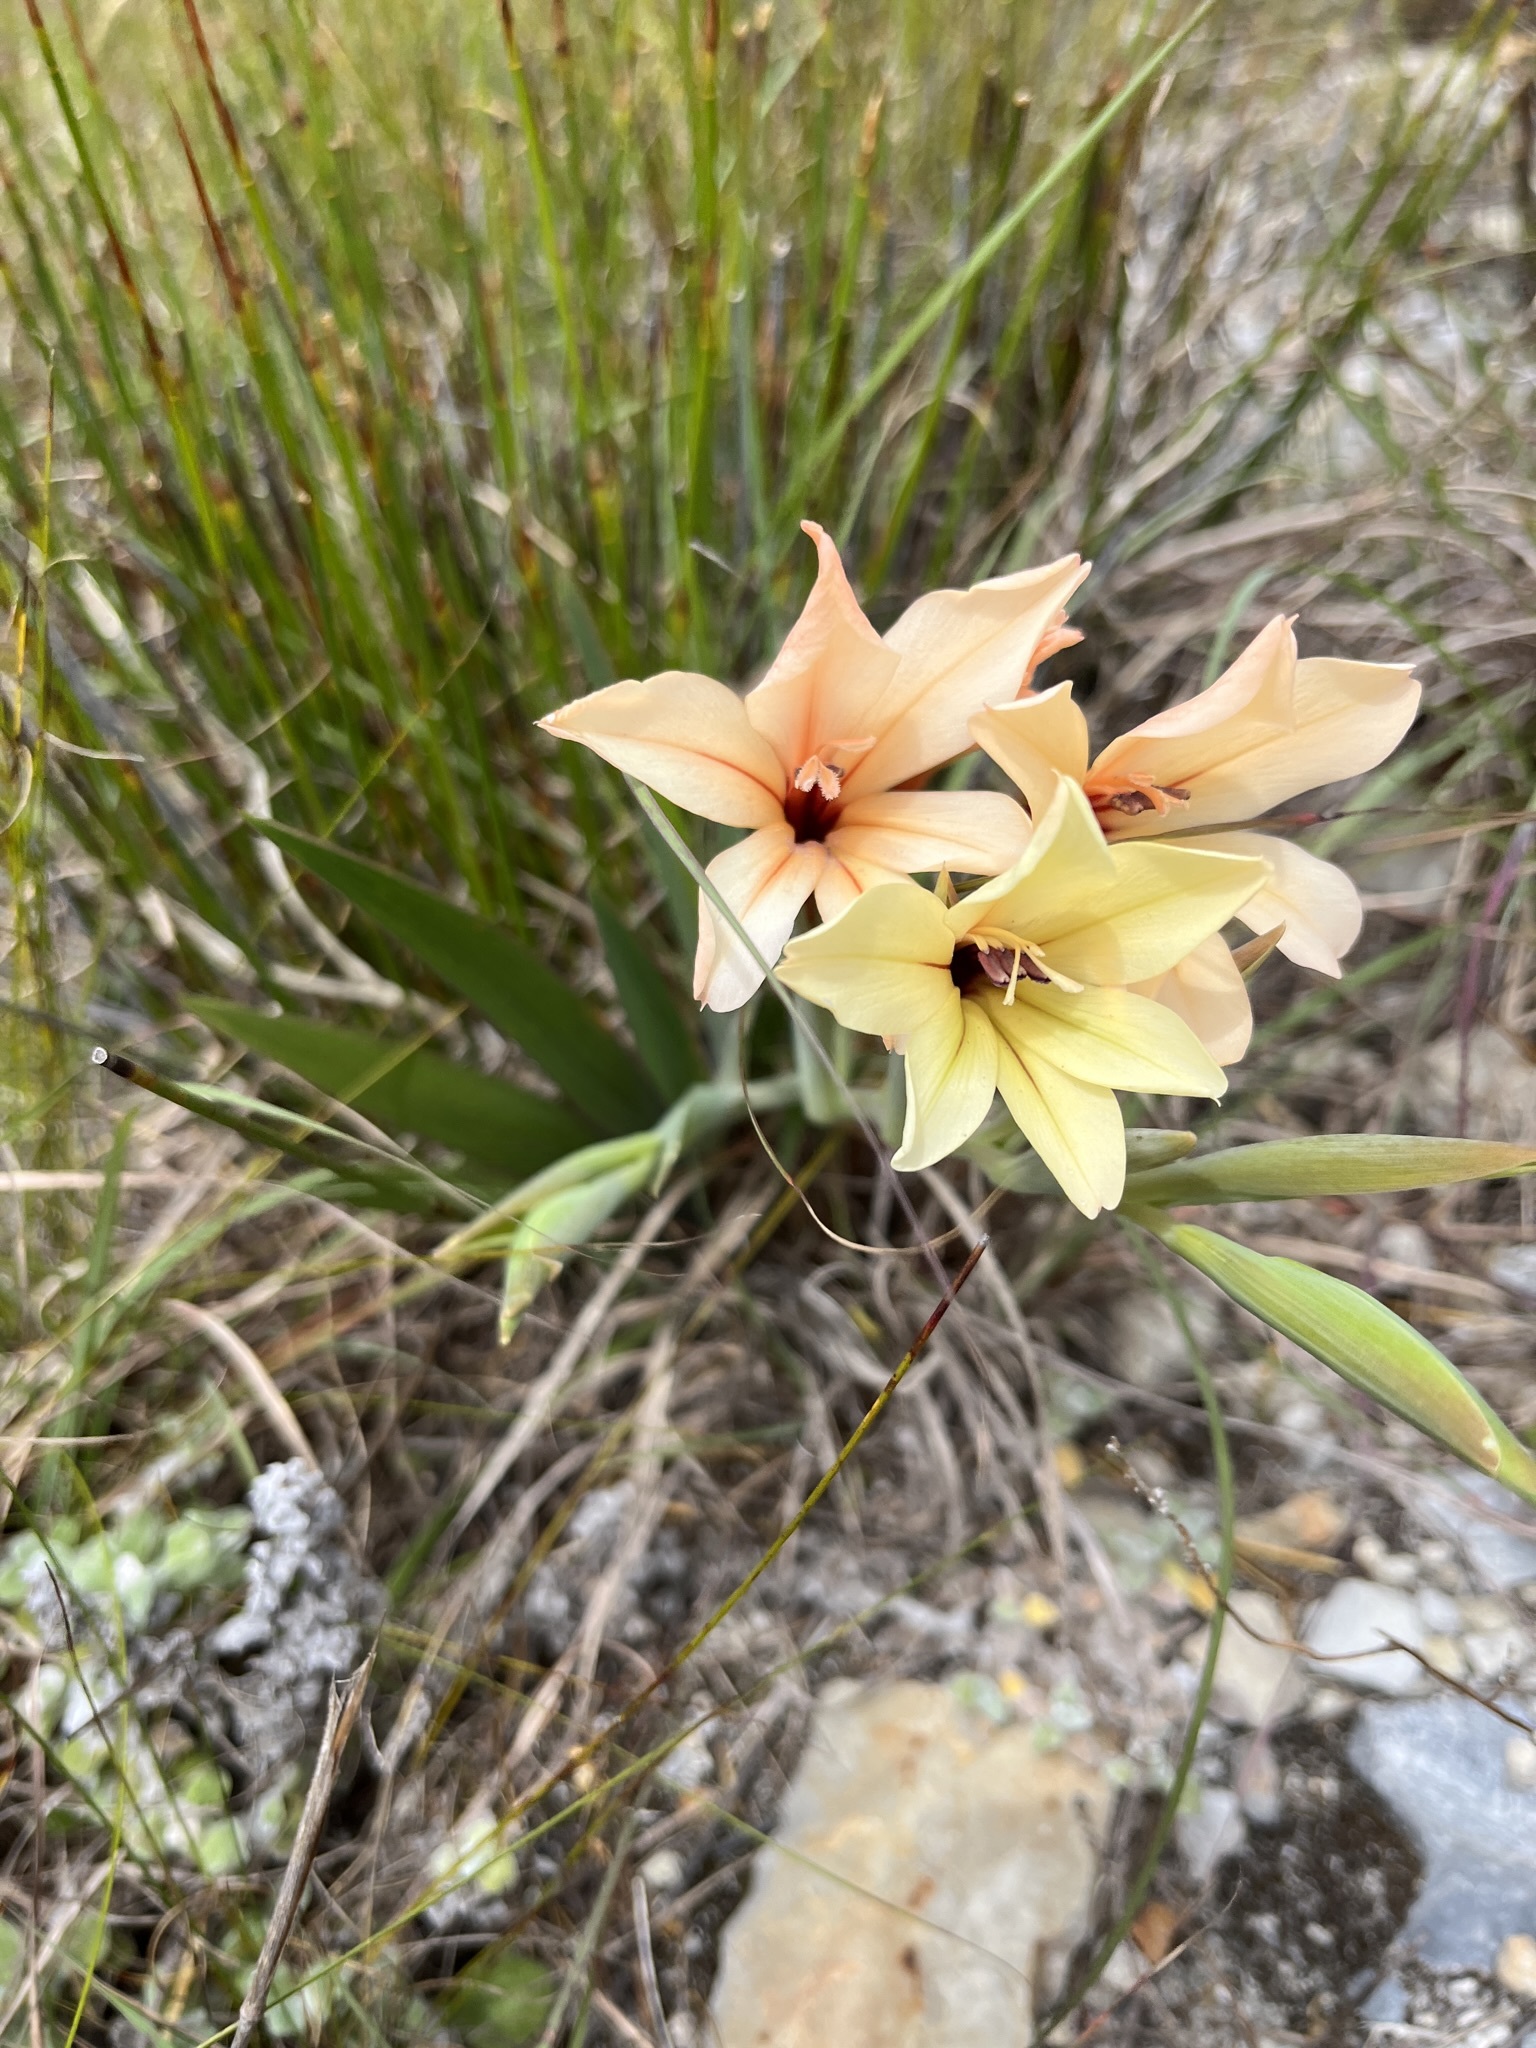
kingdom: Plantae
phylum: Tracheophyta
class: Liliopsida
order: Asparagales
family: Iridaceae
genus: Gladiolus
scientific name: Gladiolus miniatus
